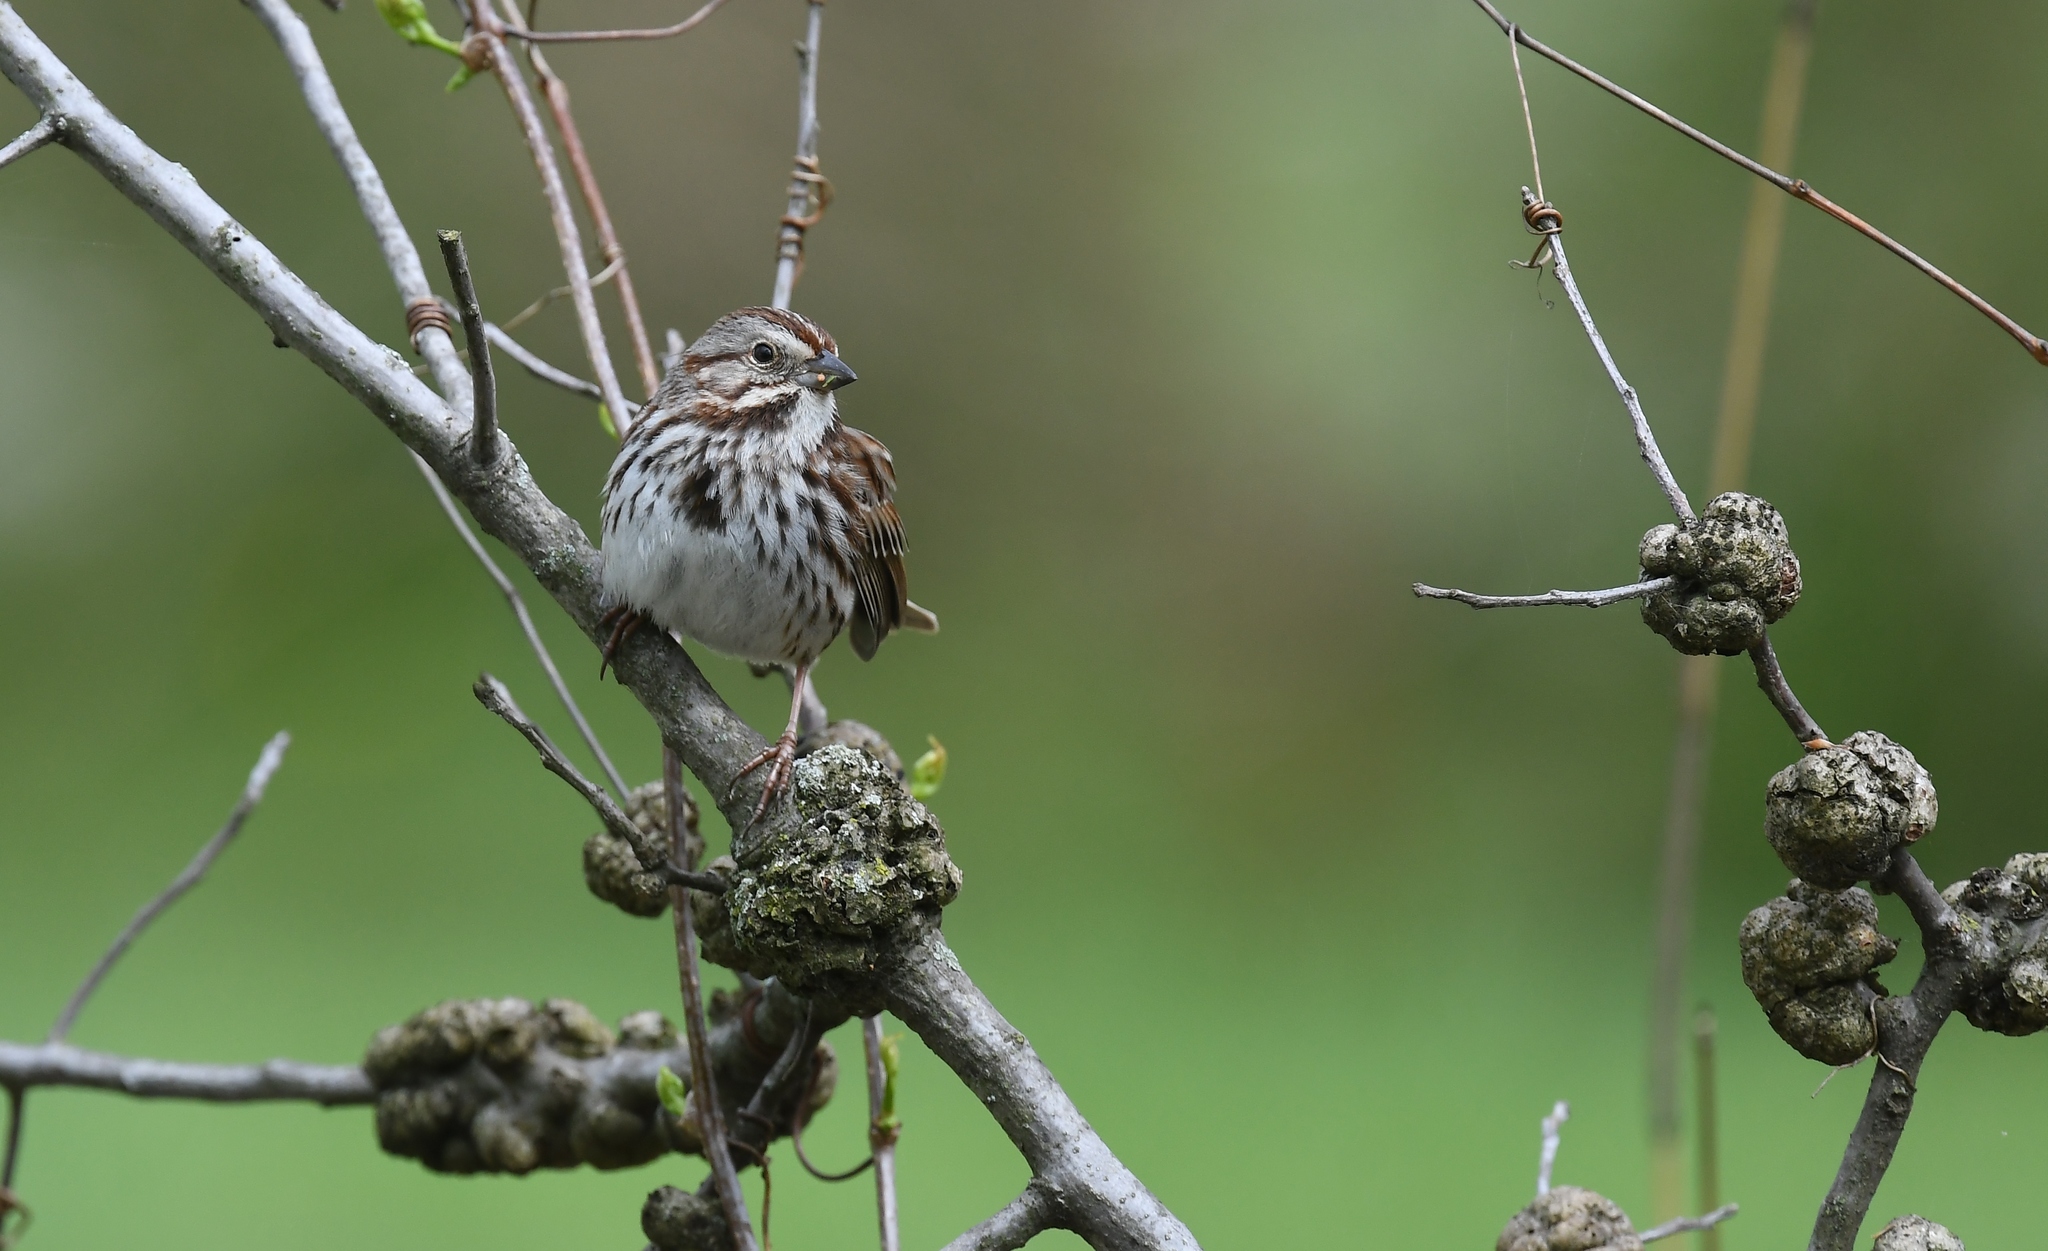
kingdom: Animalia
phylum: Chordata
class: Aves
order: Passeriformes
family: Passerellidae
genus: Melospiza
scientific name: Melospiza melodia
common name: Song sparrow
